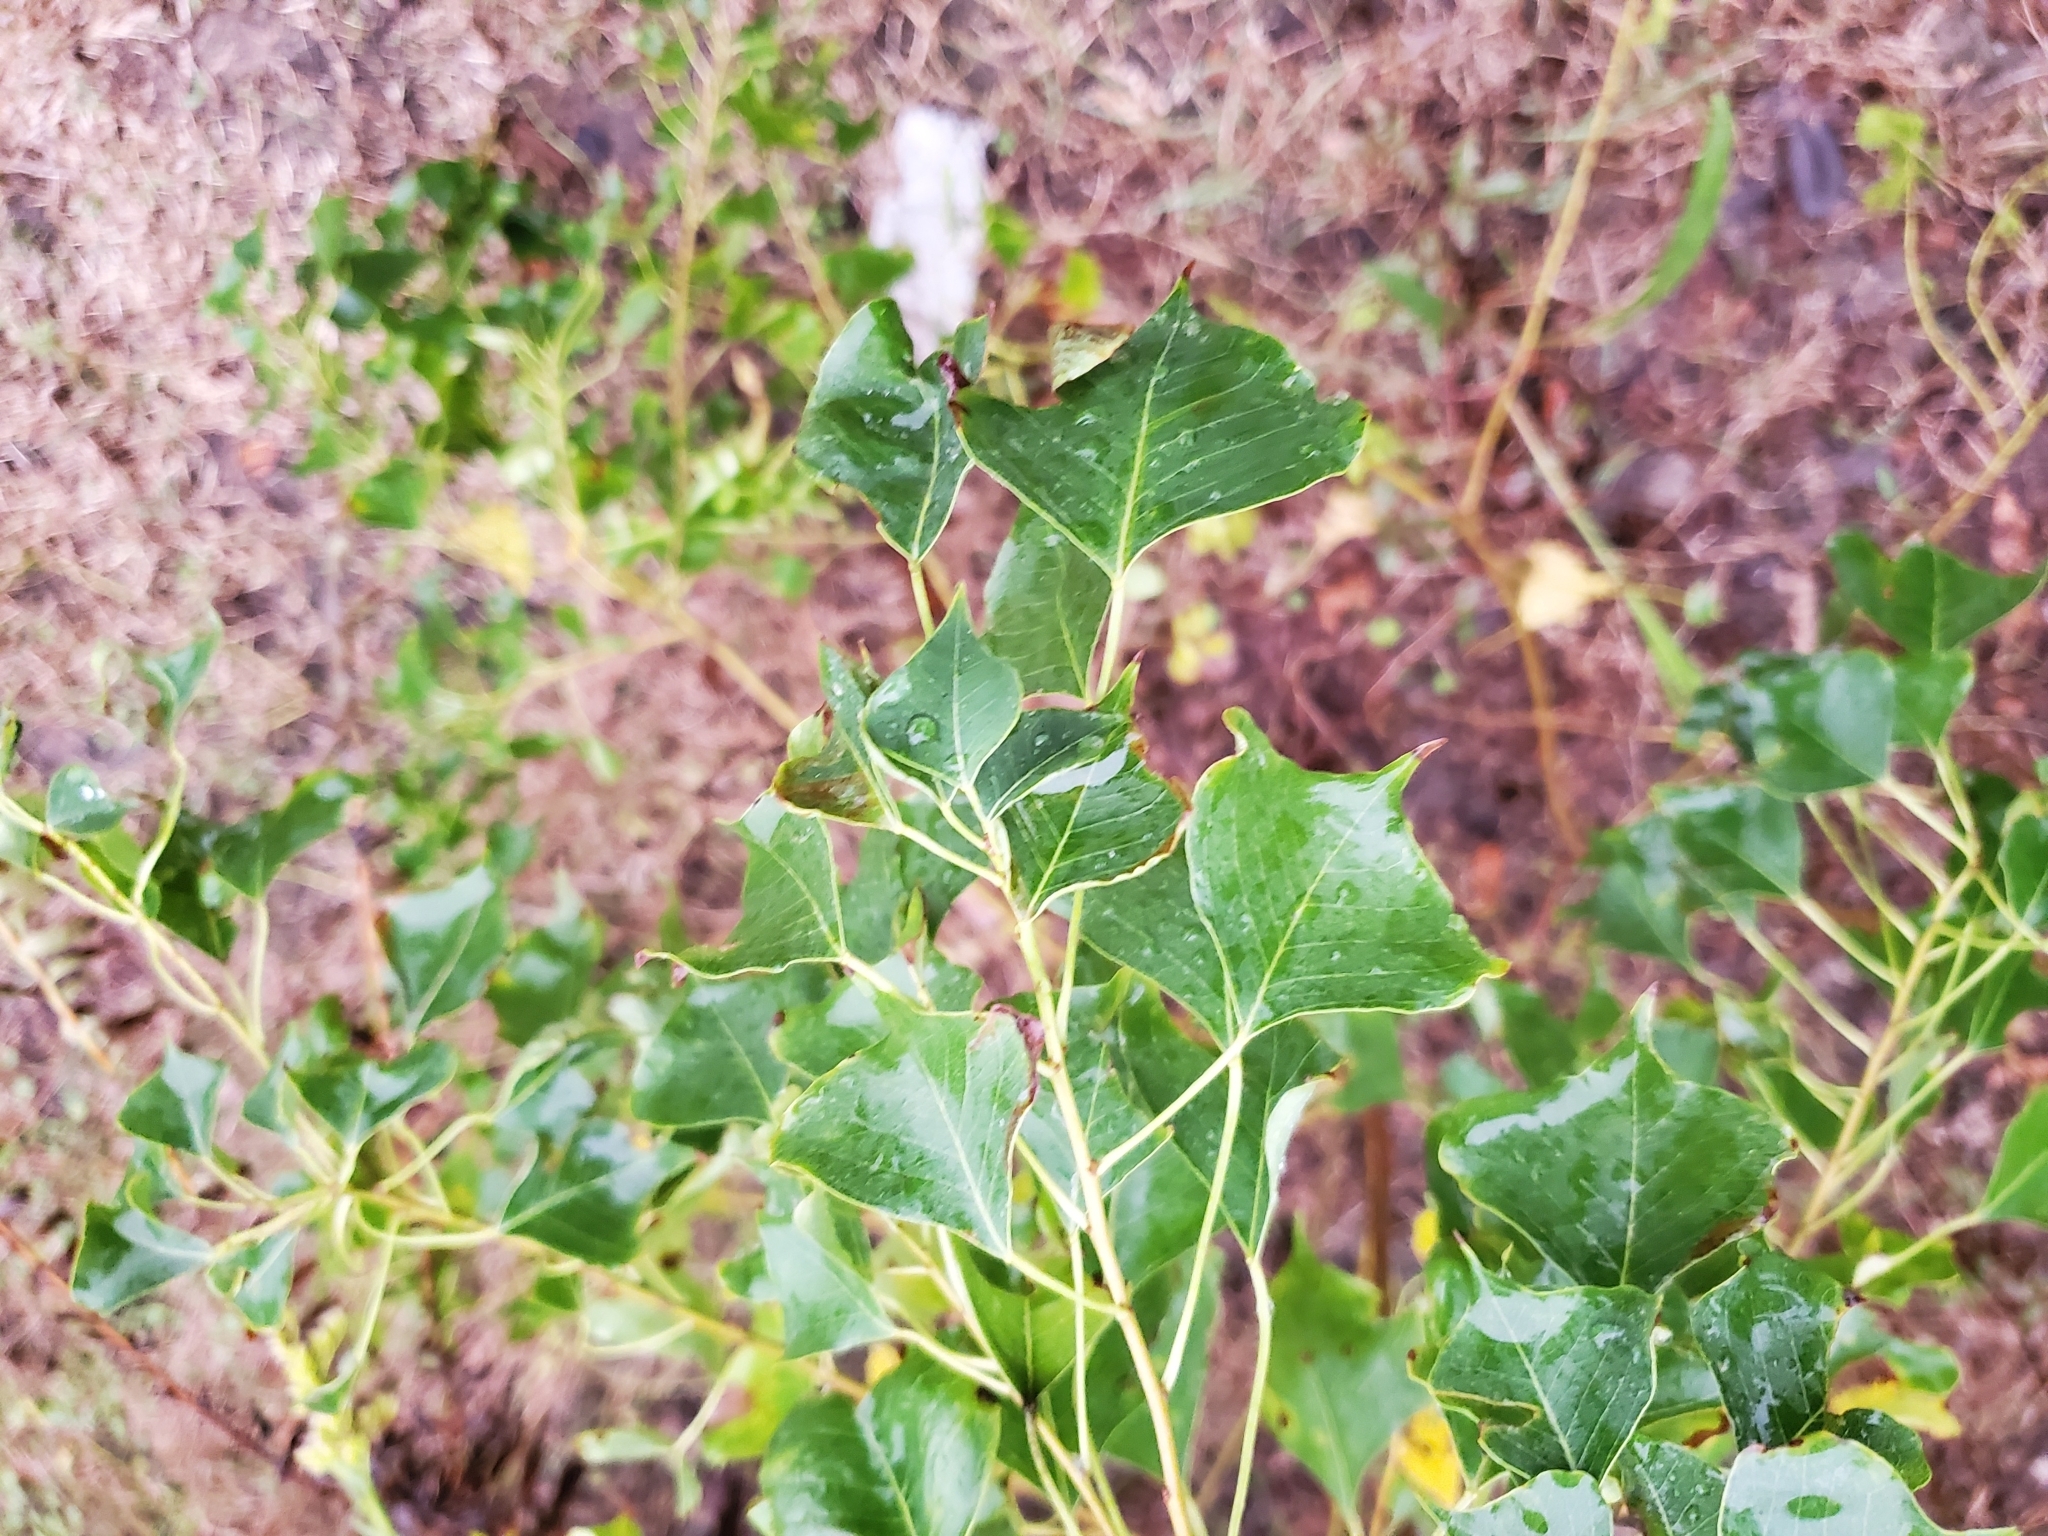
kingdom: Plantae
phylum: Tracheophyta
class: Magnoliopsida
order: Malpighiales
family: Euphorbiaceae
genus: Triadica
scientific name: Triadica sebifera
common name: Chinese tallow
